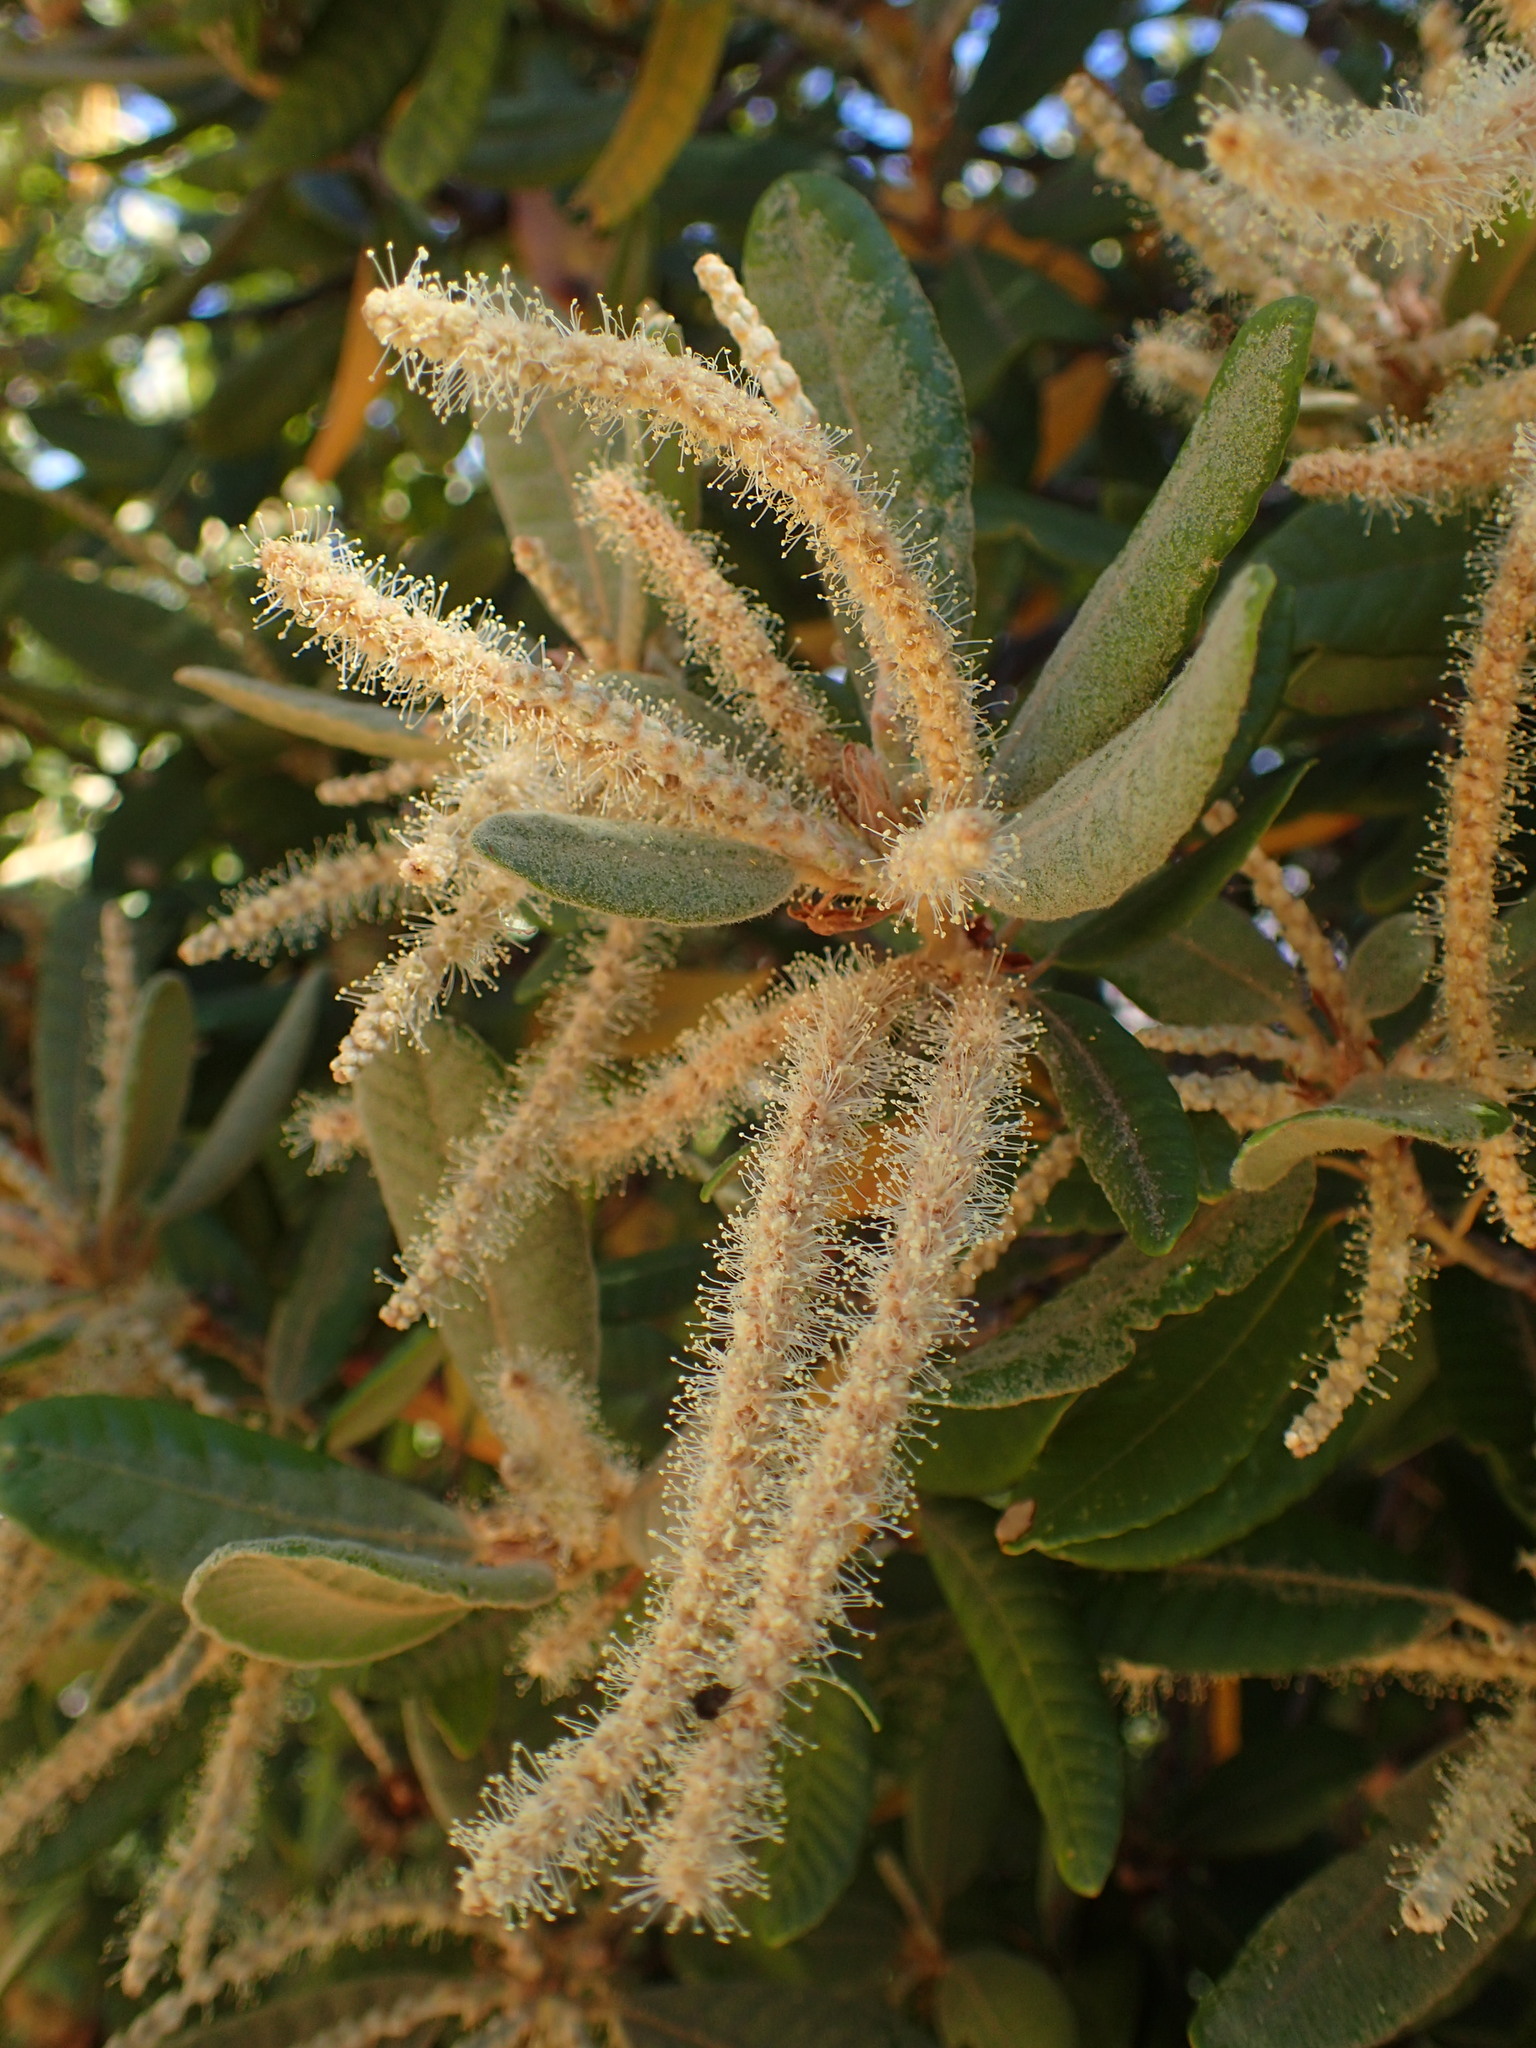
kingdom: Plantae
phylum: Tracheophyta
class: Magnoliopsida
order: Fagales
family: Fagaceae
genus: Notholithocarpus
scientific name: Notholithocarpus densiflorus
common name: Tan bark oak
